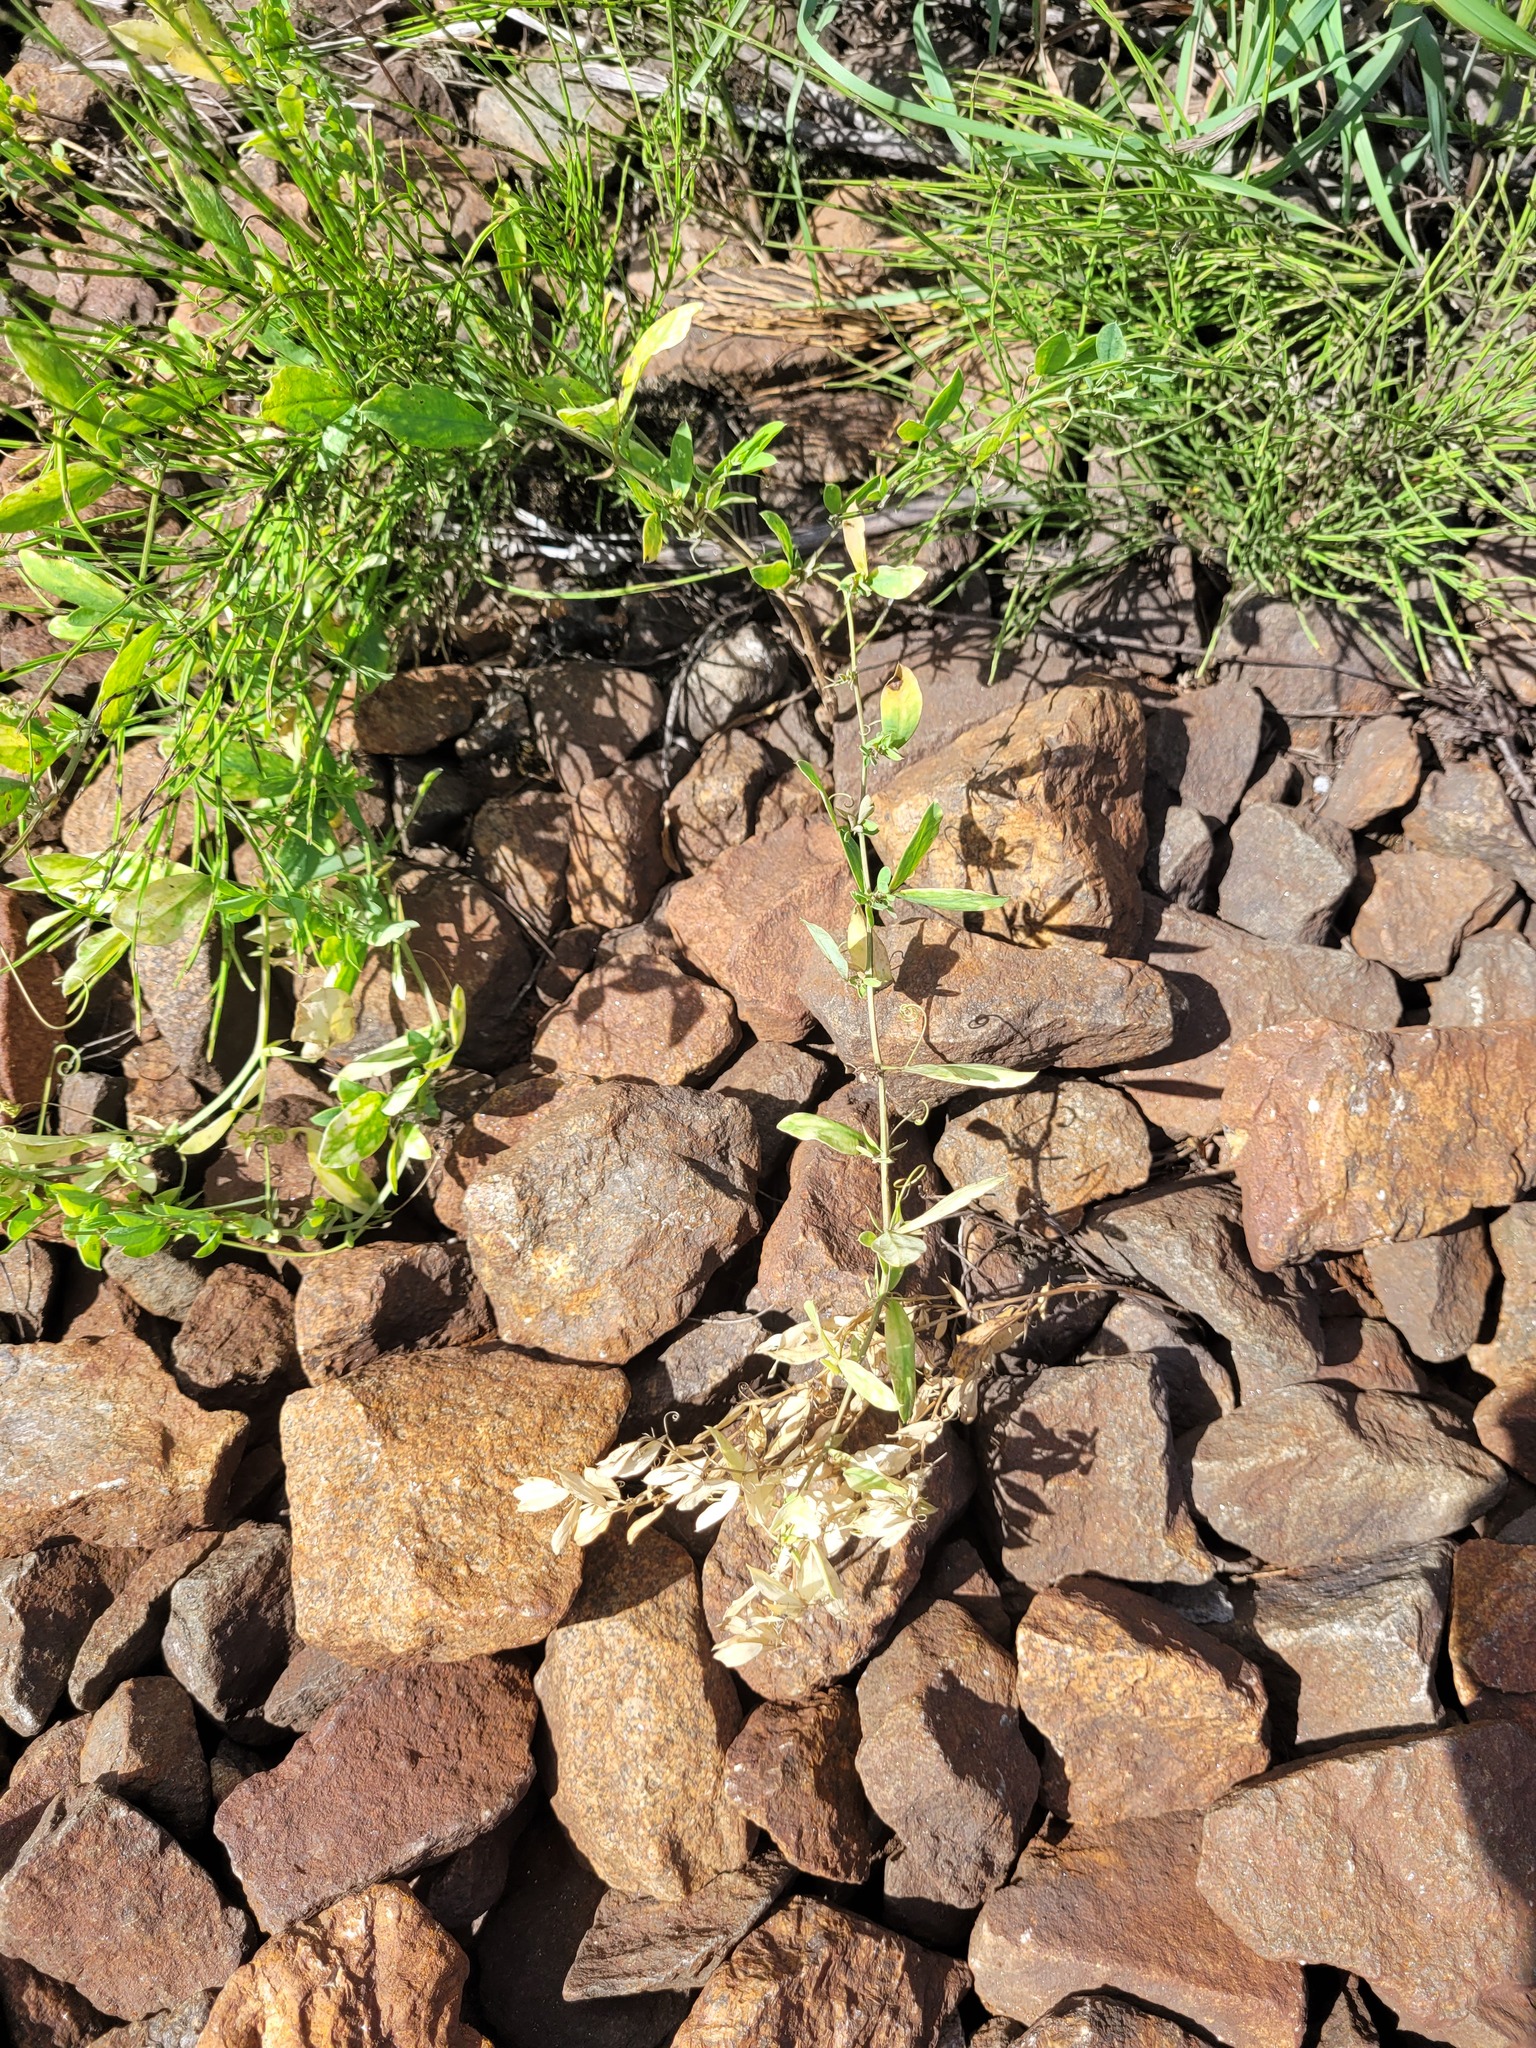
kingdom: Plantae
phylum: Tracheophyta
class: Magnoliopsida
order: Fabales
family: Fabaceae
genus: Lathyrus
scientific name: Lathyrus tuberosus
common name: Tuberous pea
